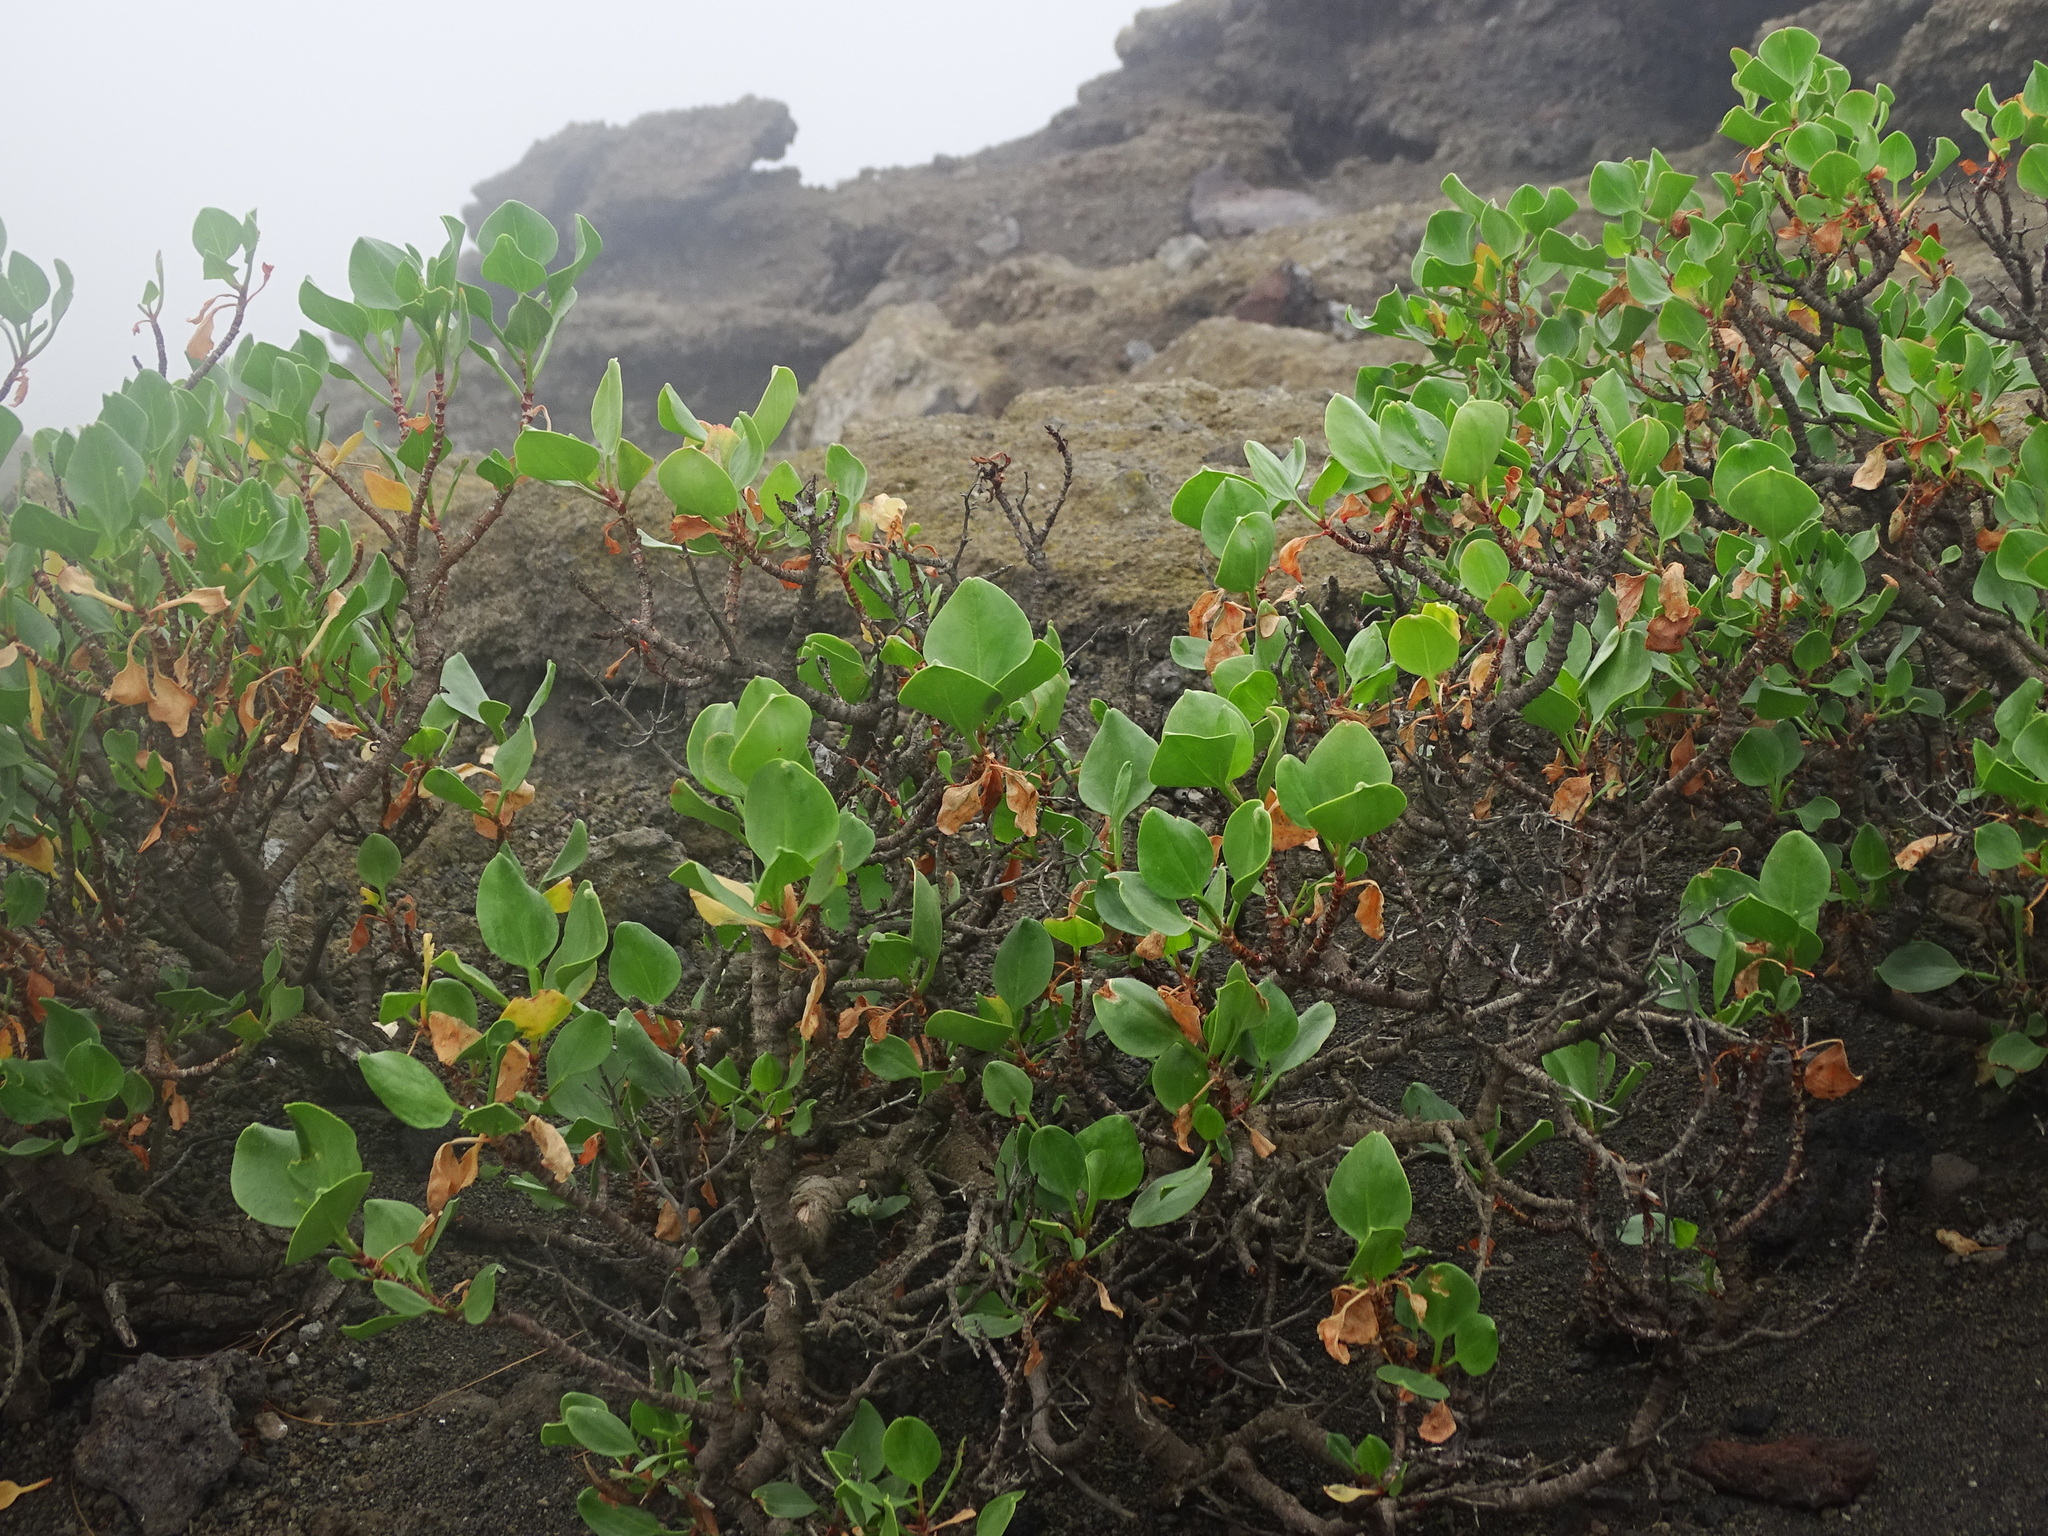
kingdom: Plantae
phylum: Tracheophyta
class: Magnoliopsida
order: Caryophyllales
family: Polygonaceae
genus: Rumex
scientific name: Rumex lunaria
